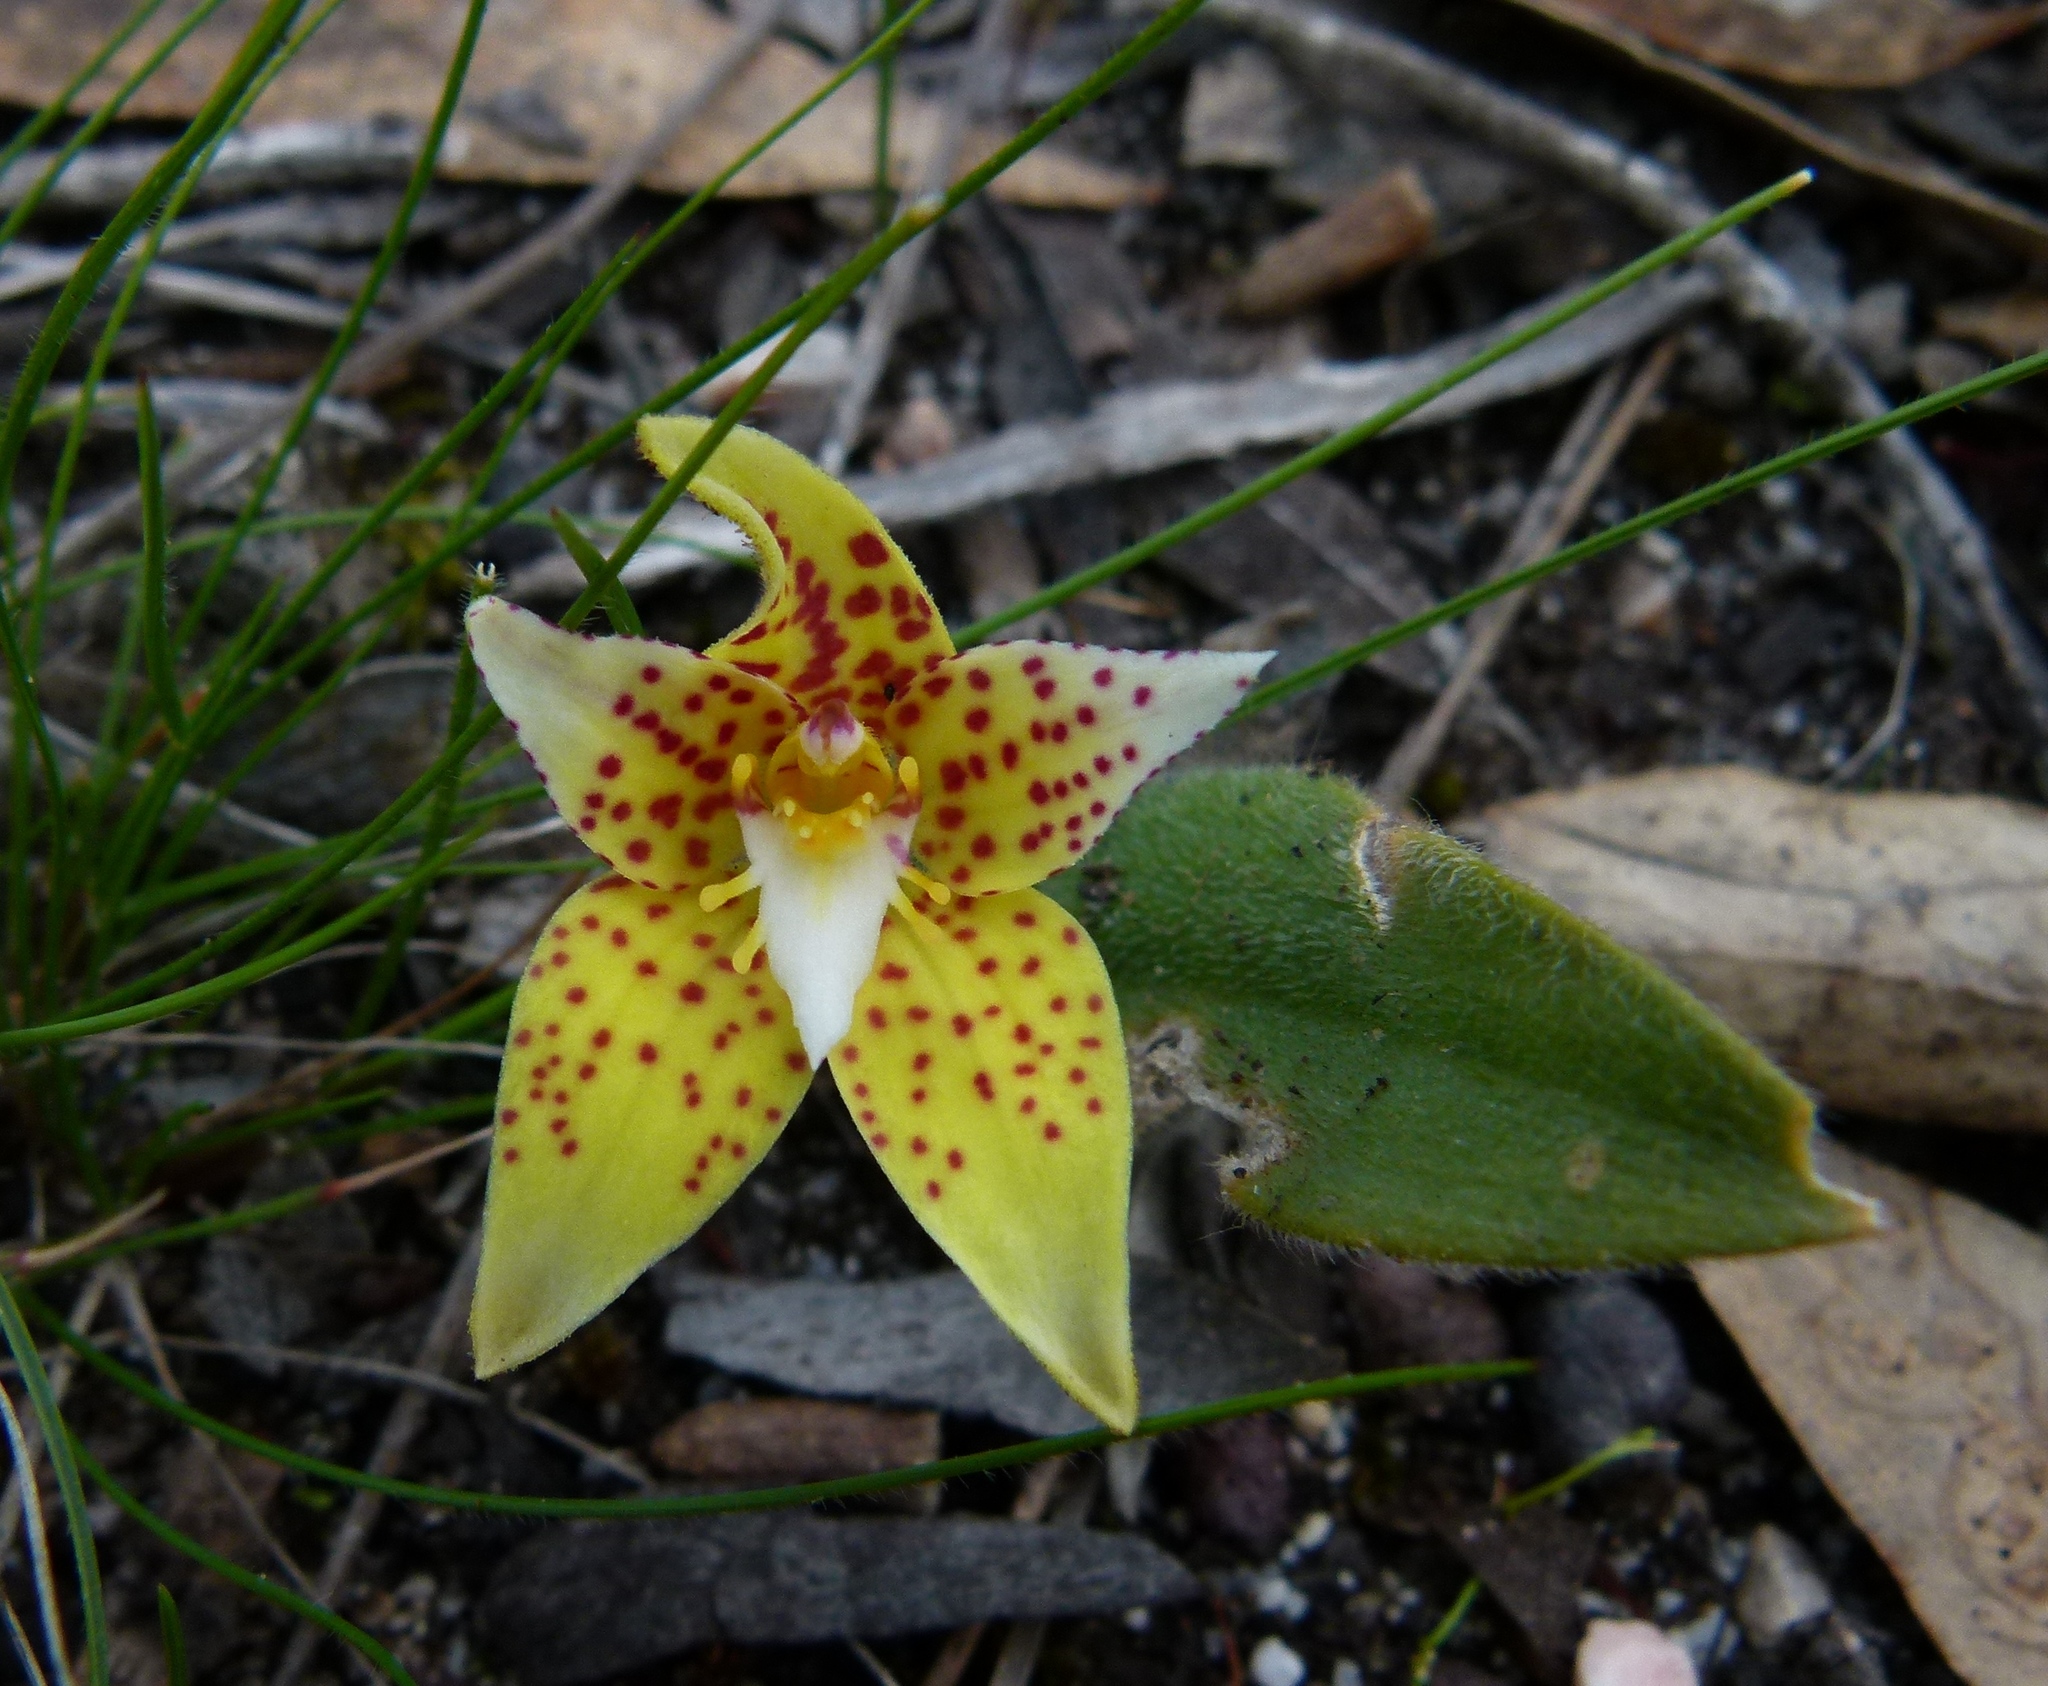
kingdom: Plantae
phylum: Tracheophyta
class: Liliopsida
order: Asparagales
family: Orchidaceae
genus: Caladenia
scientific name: Caladenia flava
